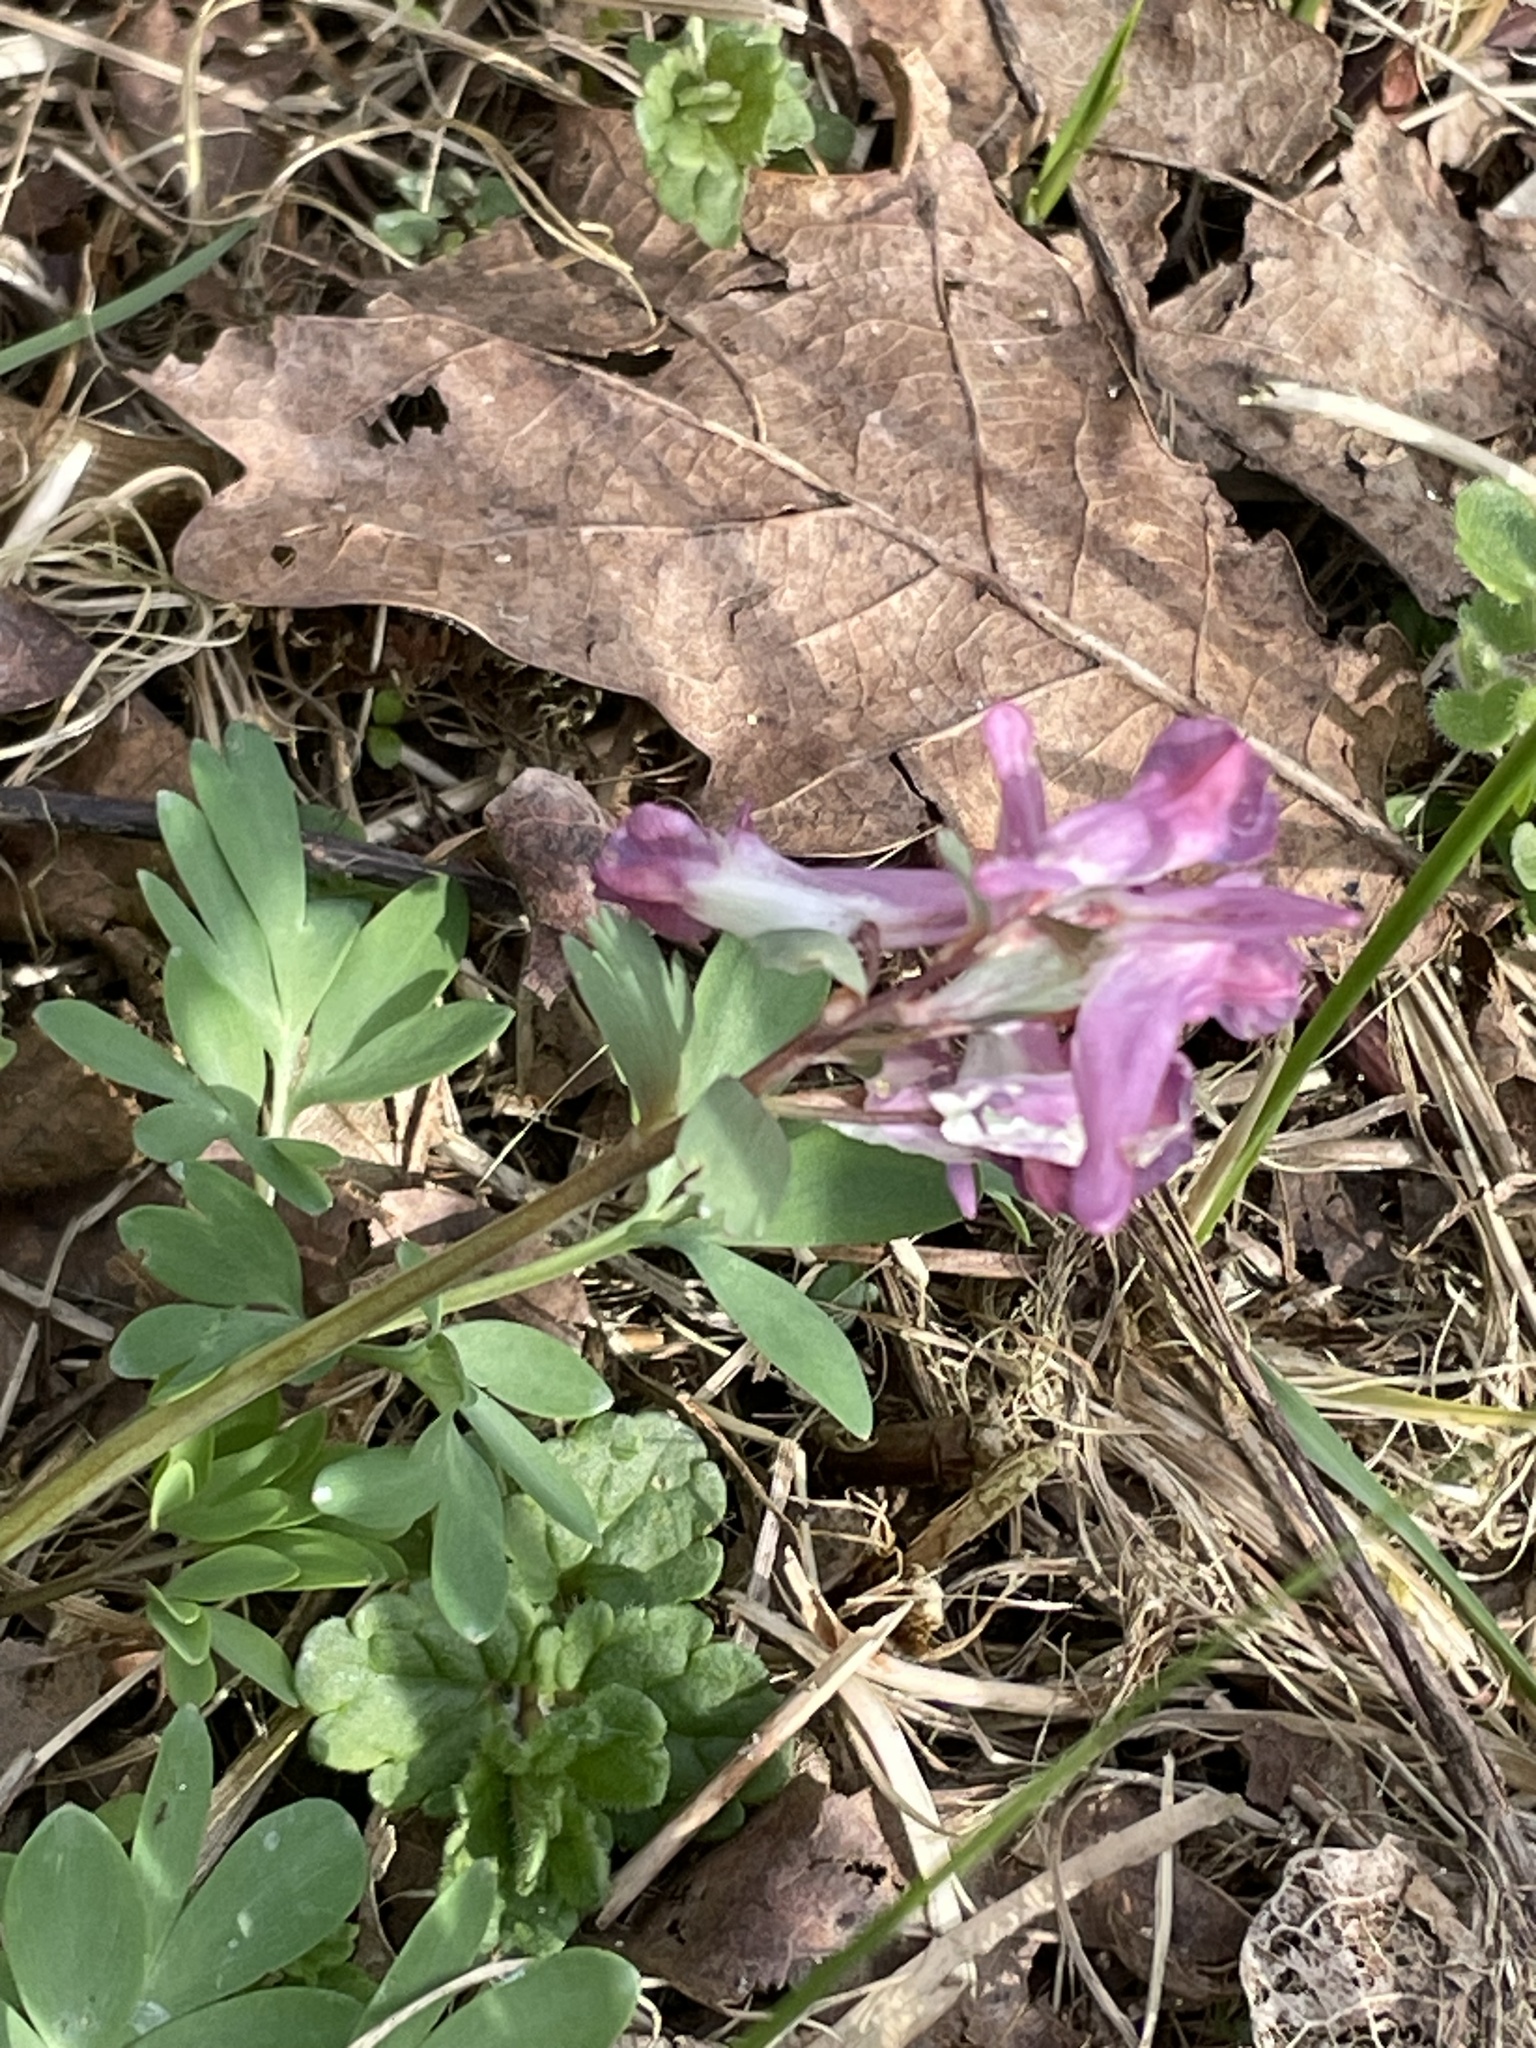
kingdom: Plantae
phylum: Tracheophyta
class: Magnoliopsida
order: Ranunculales
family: Papaveraceae
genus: Corydalis
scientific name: Corydalis solida
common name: Bird-in-a-bush
